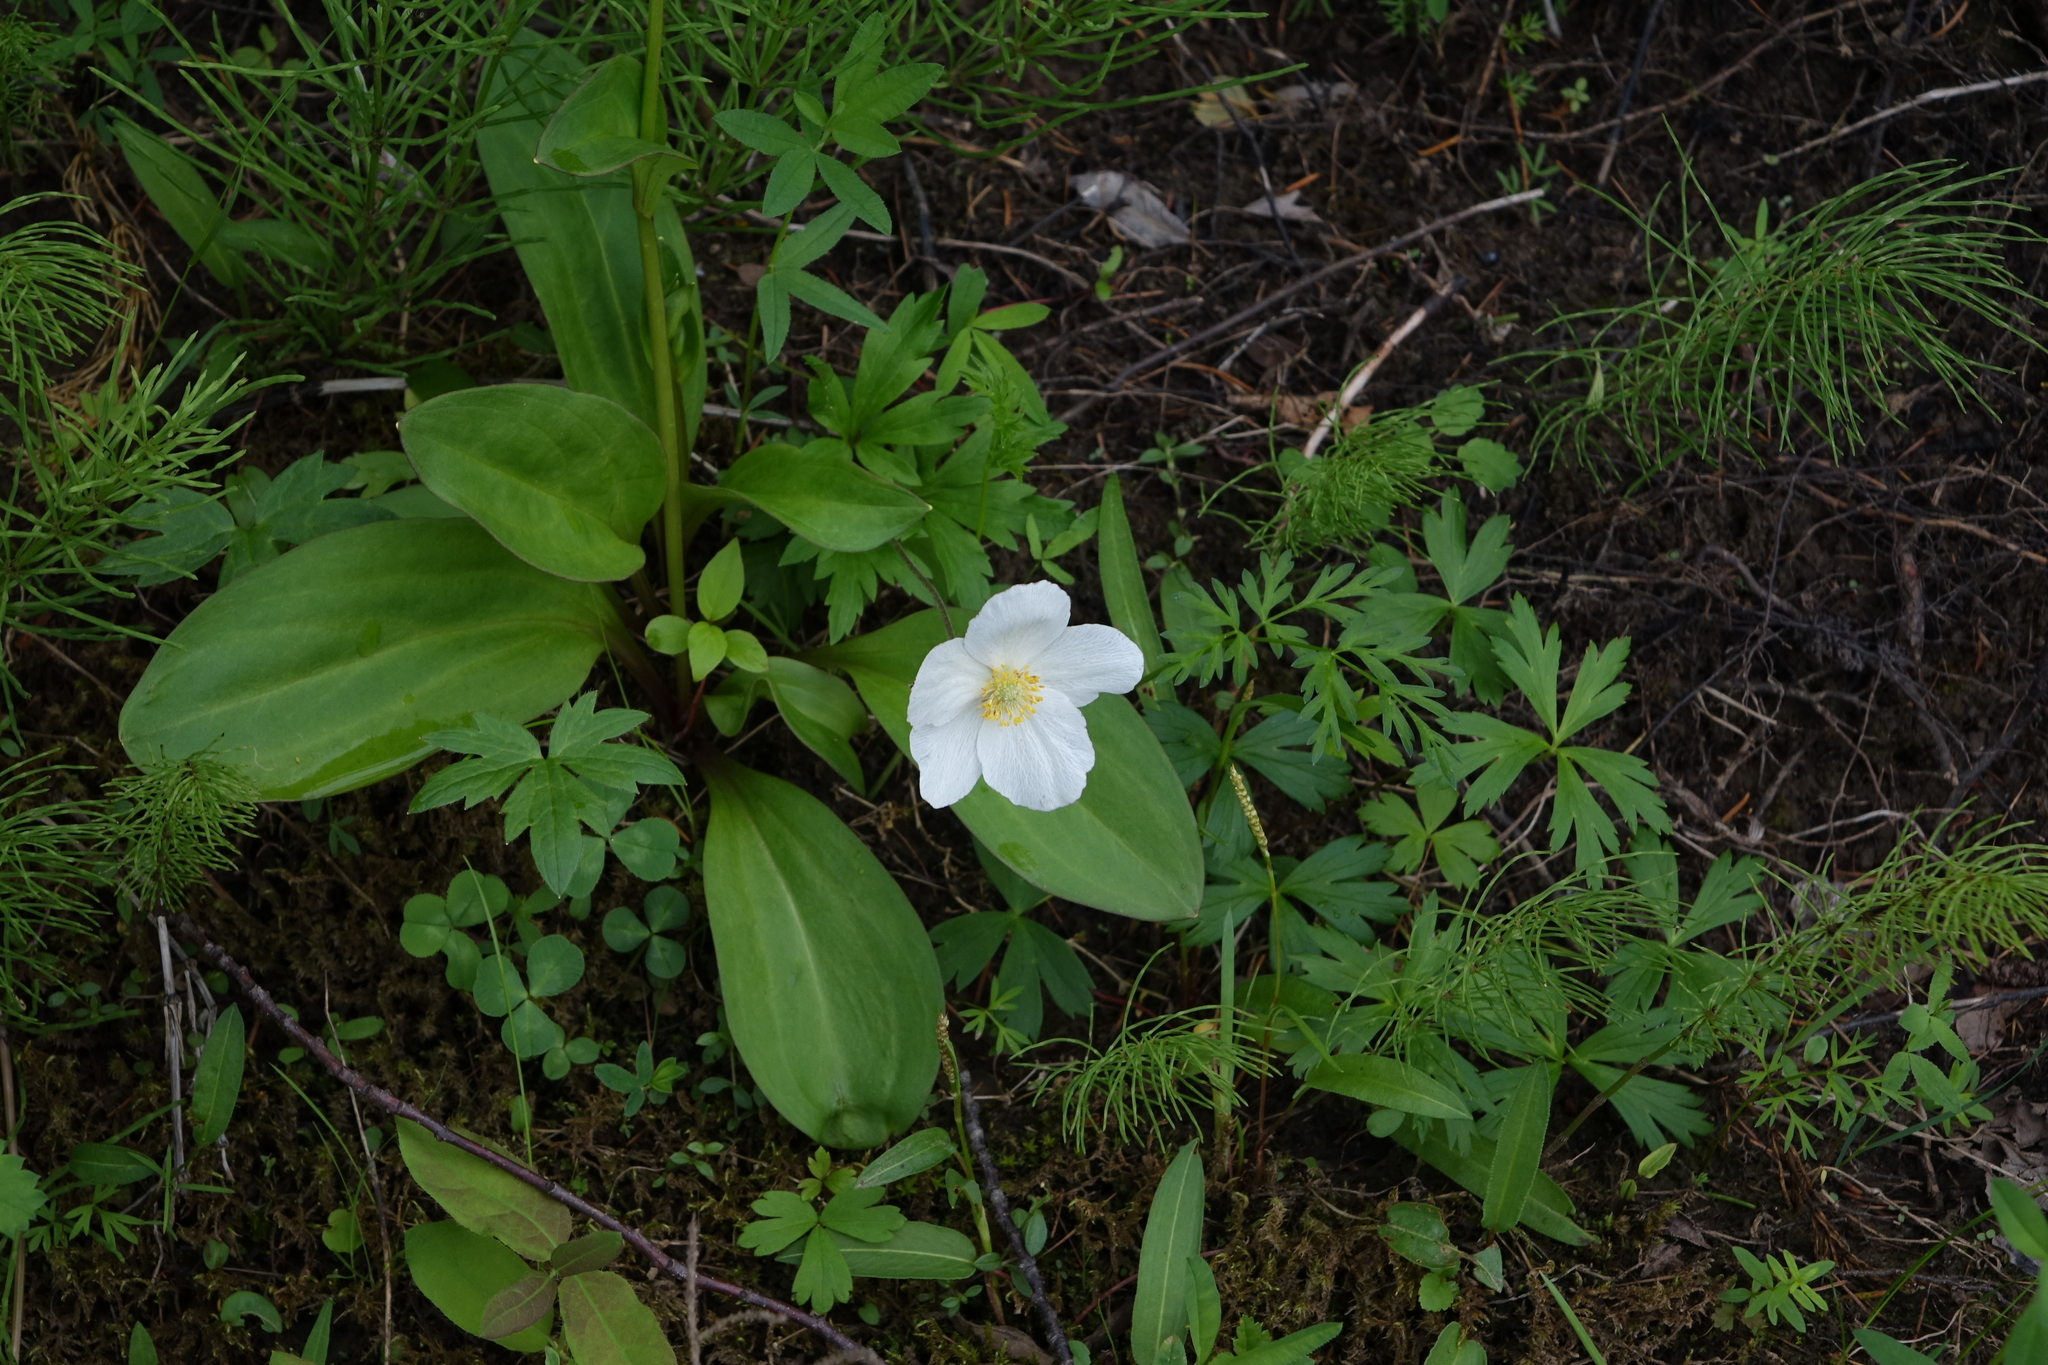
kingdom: Plantae
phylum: Tracheophyta
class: Polypodiopsida
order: Equisetales
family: Equisetaceae
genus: Equisetum
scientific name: Equisetum pratense
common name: Meadow horsetail
